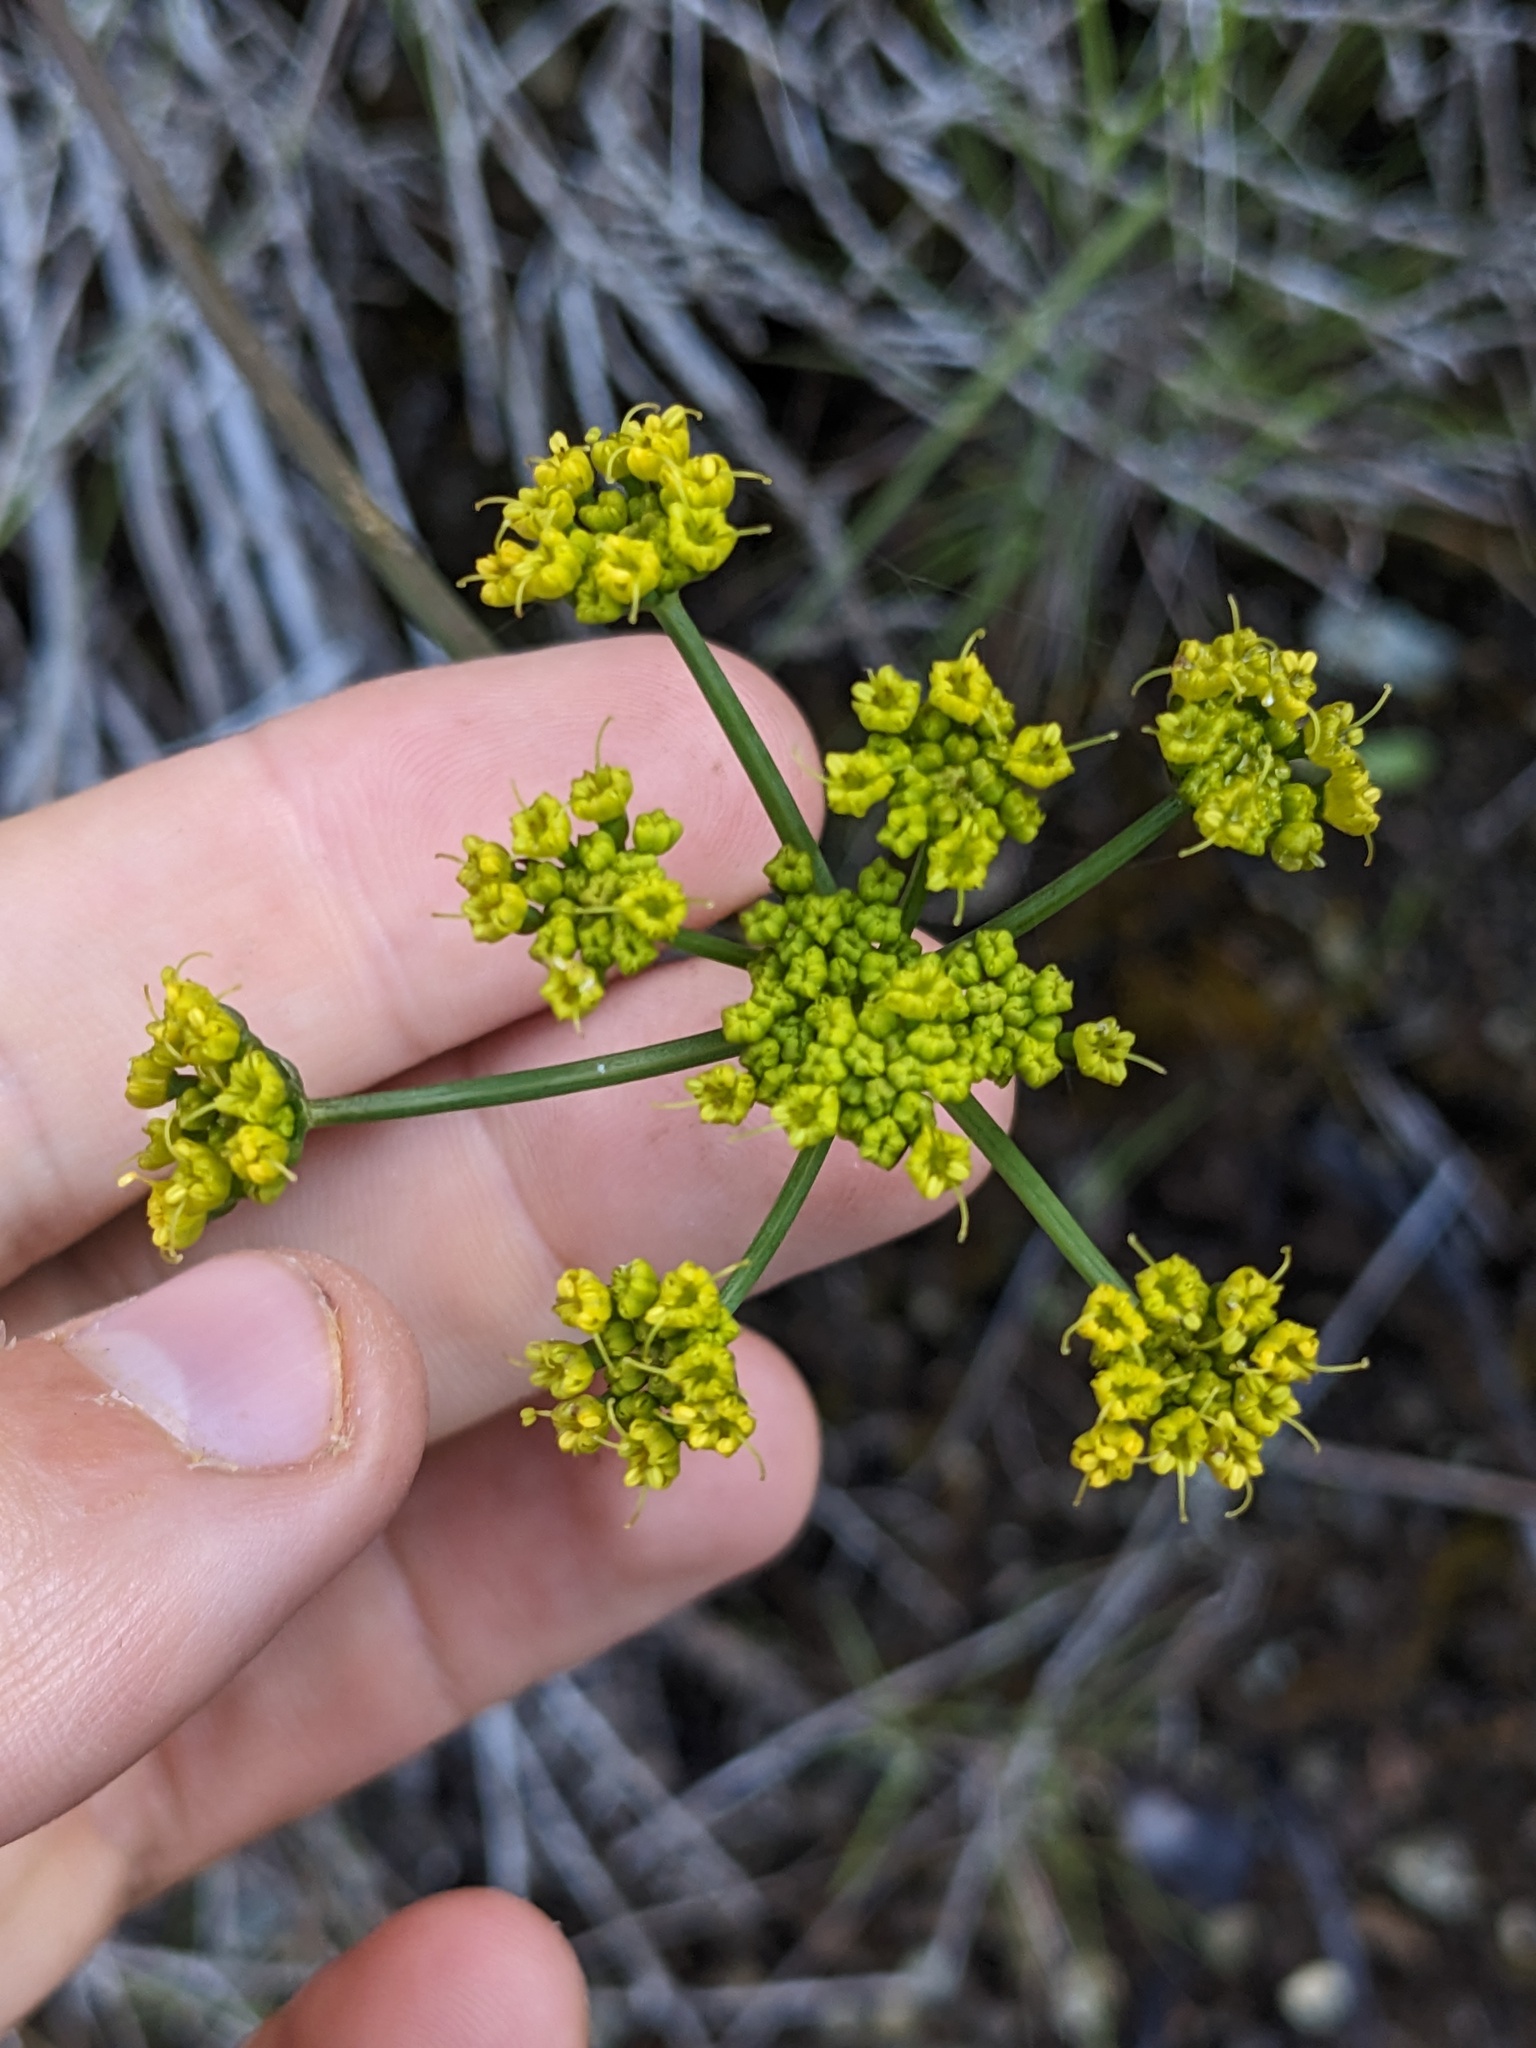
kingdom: Plantae
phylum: Tracheophyta
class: Magnoliopsida
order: Apiales
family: Apiaceae
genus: Lomatium
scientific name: Lomatium parvifolium
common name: Small-leaf lomatium
